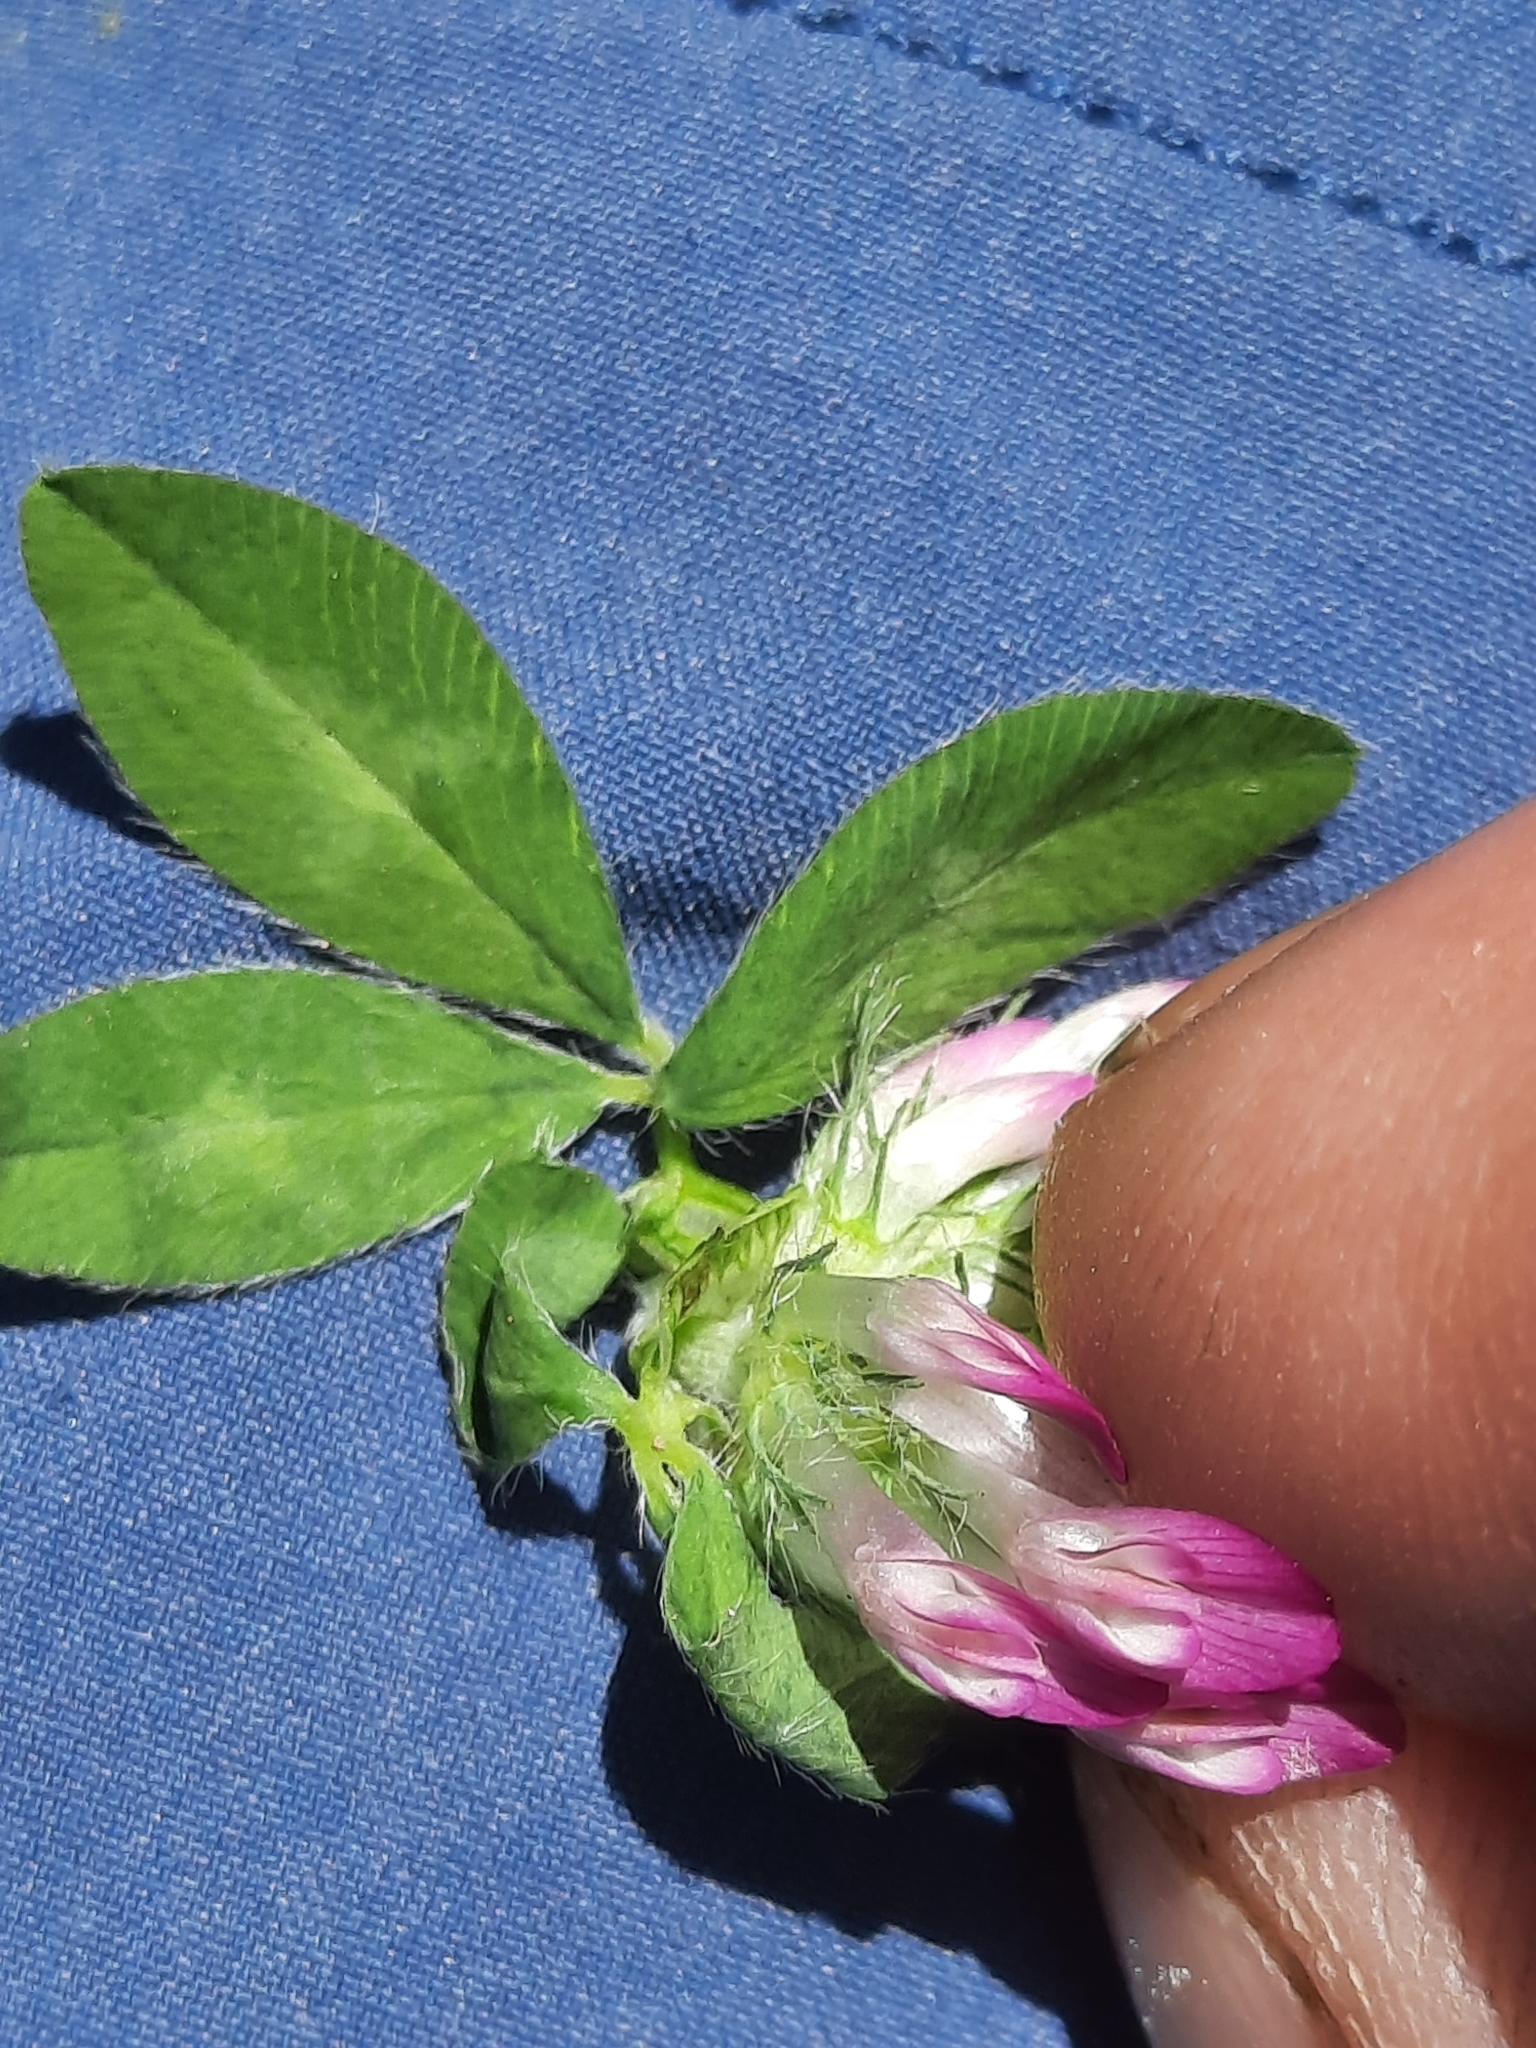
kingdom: Plantae
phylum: Tracheophyta
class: Magnoliopsida
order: Fabales
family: Fabaceae
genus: Trifolium
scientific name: Trifolium pratense
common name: Red clover
